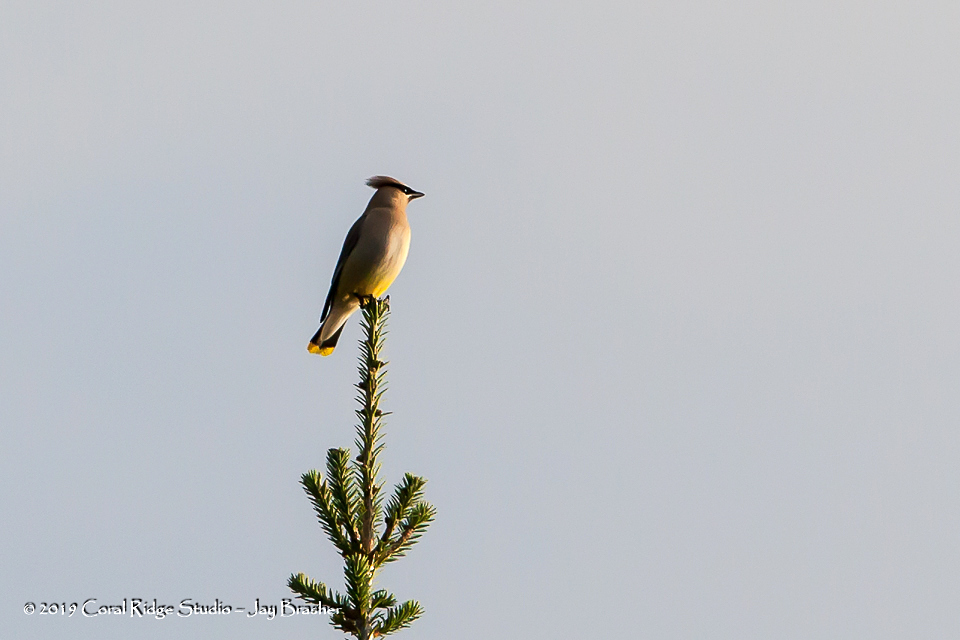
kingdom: Animalia
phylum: Chordata
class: Aves
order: Passeriformes
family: Bombycillidae
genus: Bombycilla
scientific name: Bombycilla cedrorum
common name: Cedar waxwing
